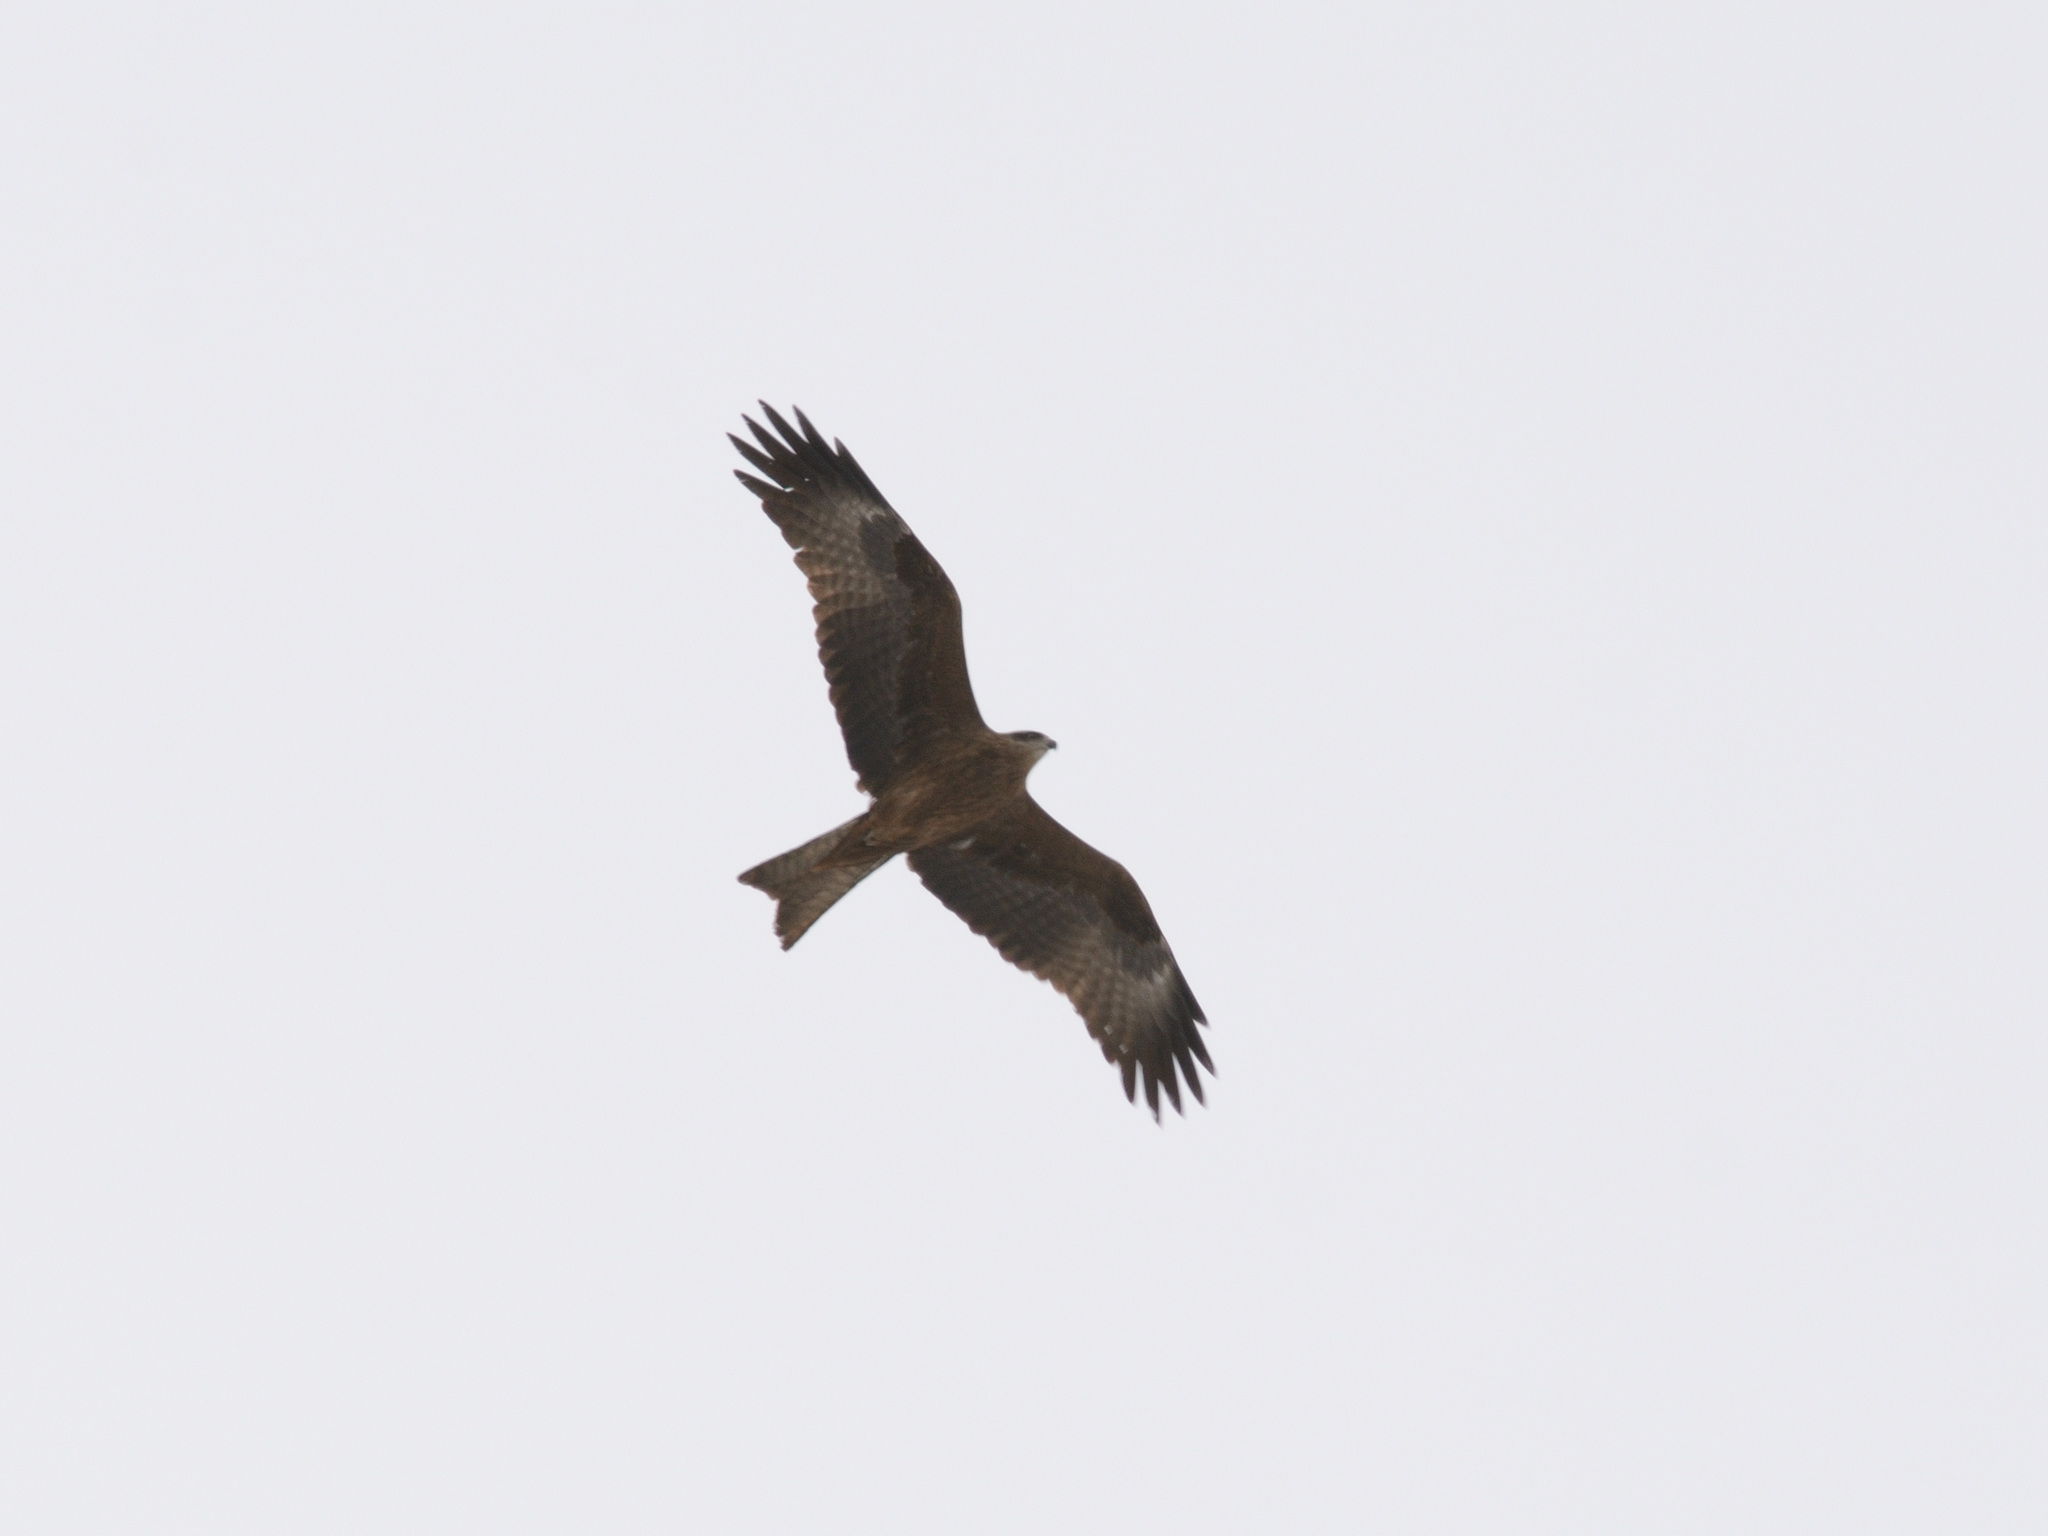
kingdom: Animalia
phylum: Chordata
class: Aves
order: Accipitriformes
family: Accipitridae
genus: Milvus
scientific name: Milvus migrans
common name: Black kite
